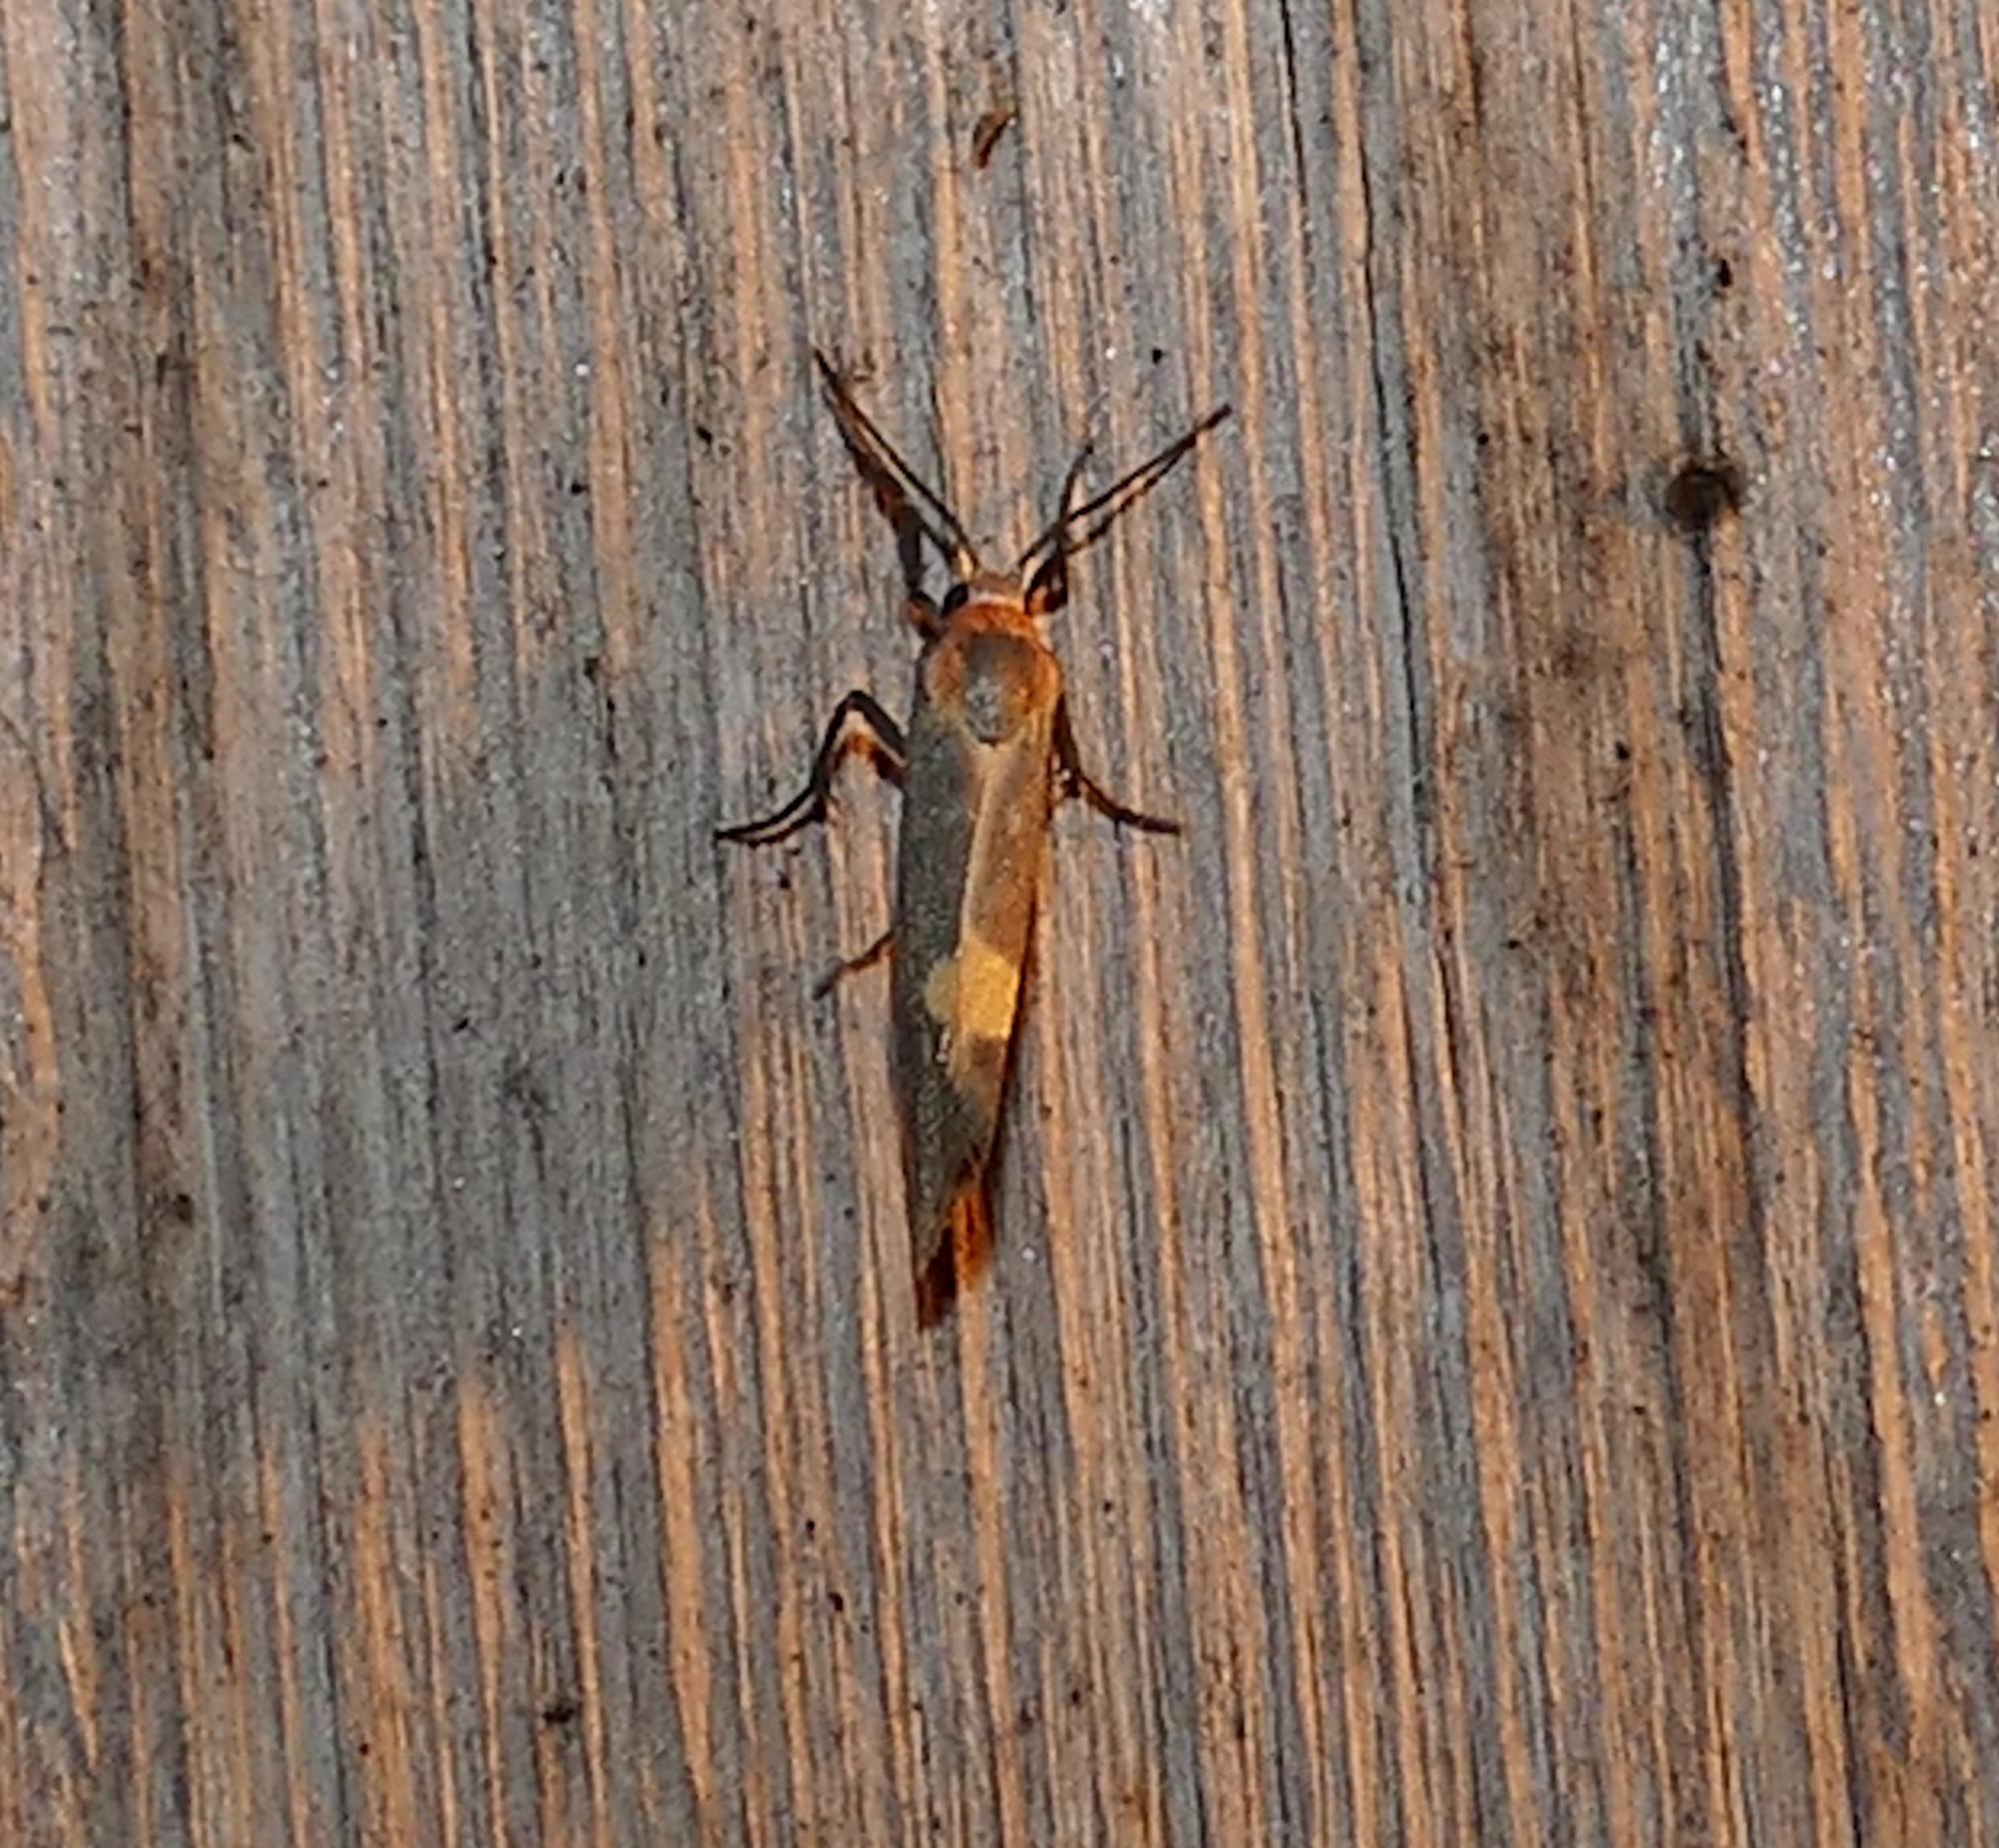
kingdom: Animalia
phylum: Arthropoda
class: Insecta
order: Lepidoptera
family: Erebidae
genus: Cisthene
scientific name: Cisthene plumbea
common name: Lead colored lichen moth
